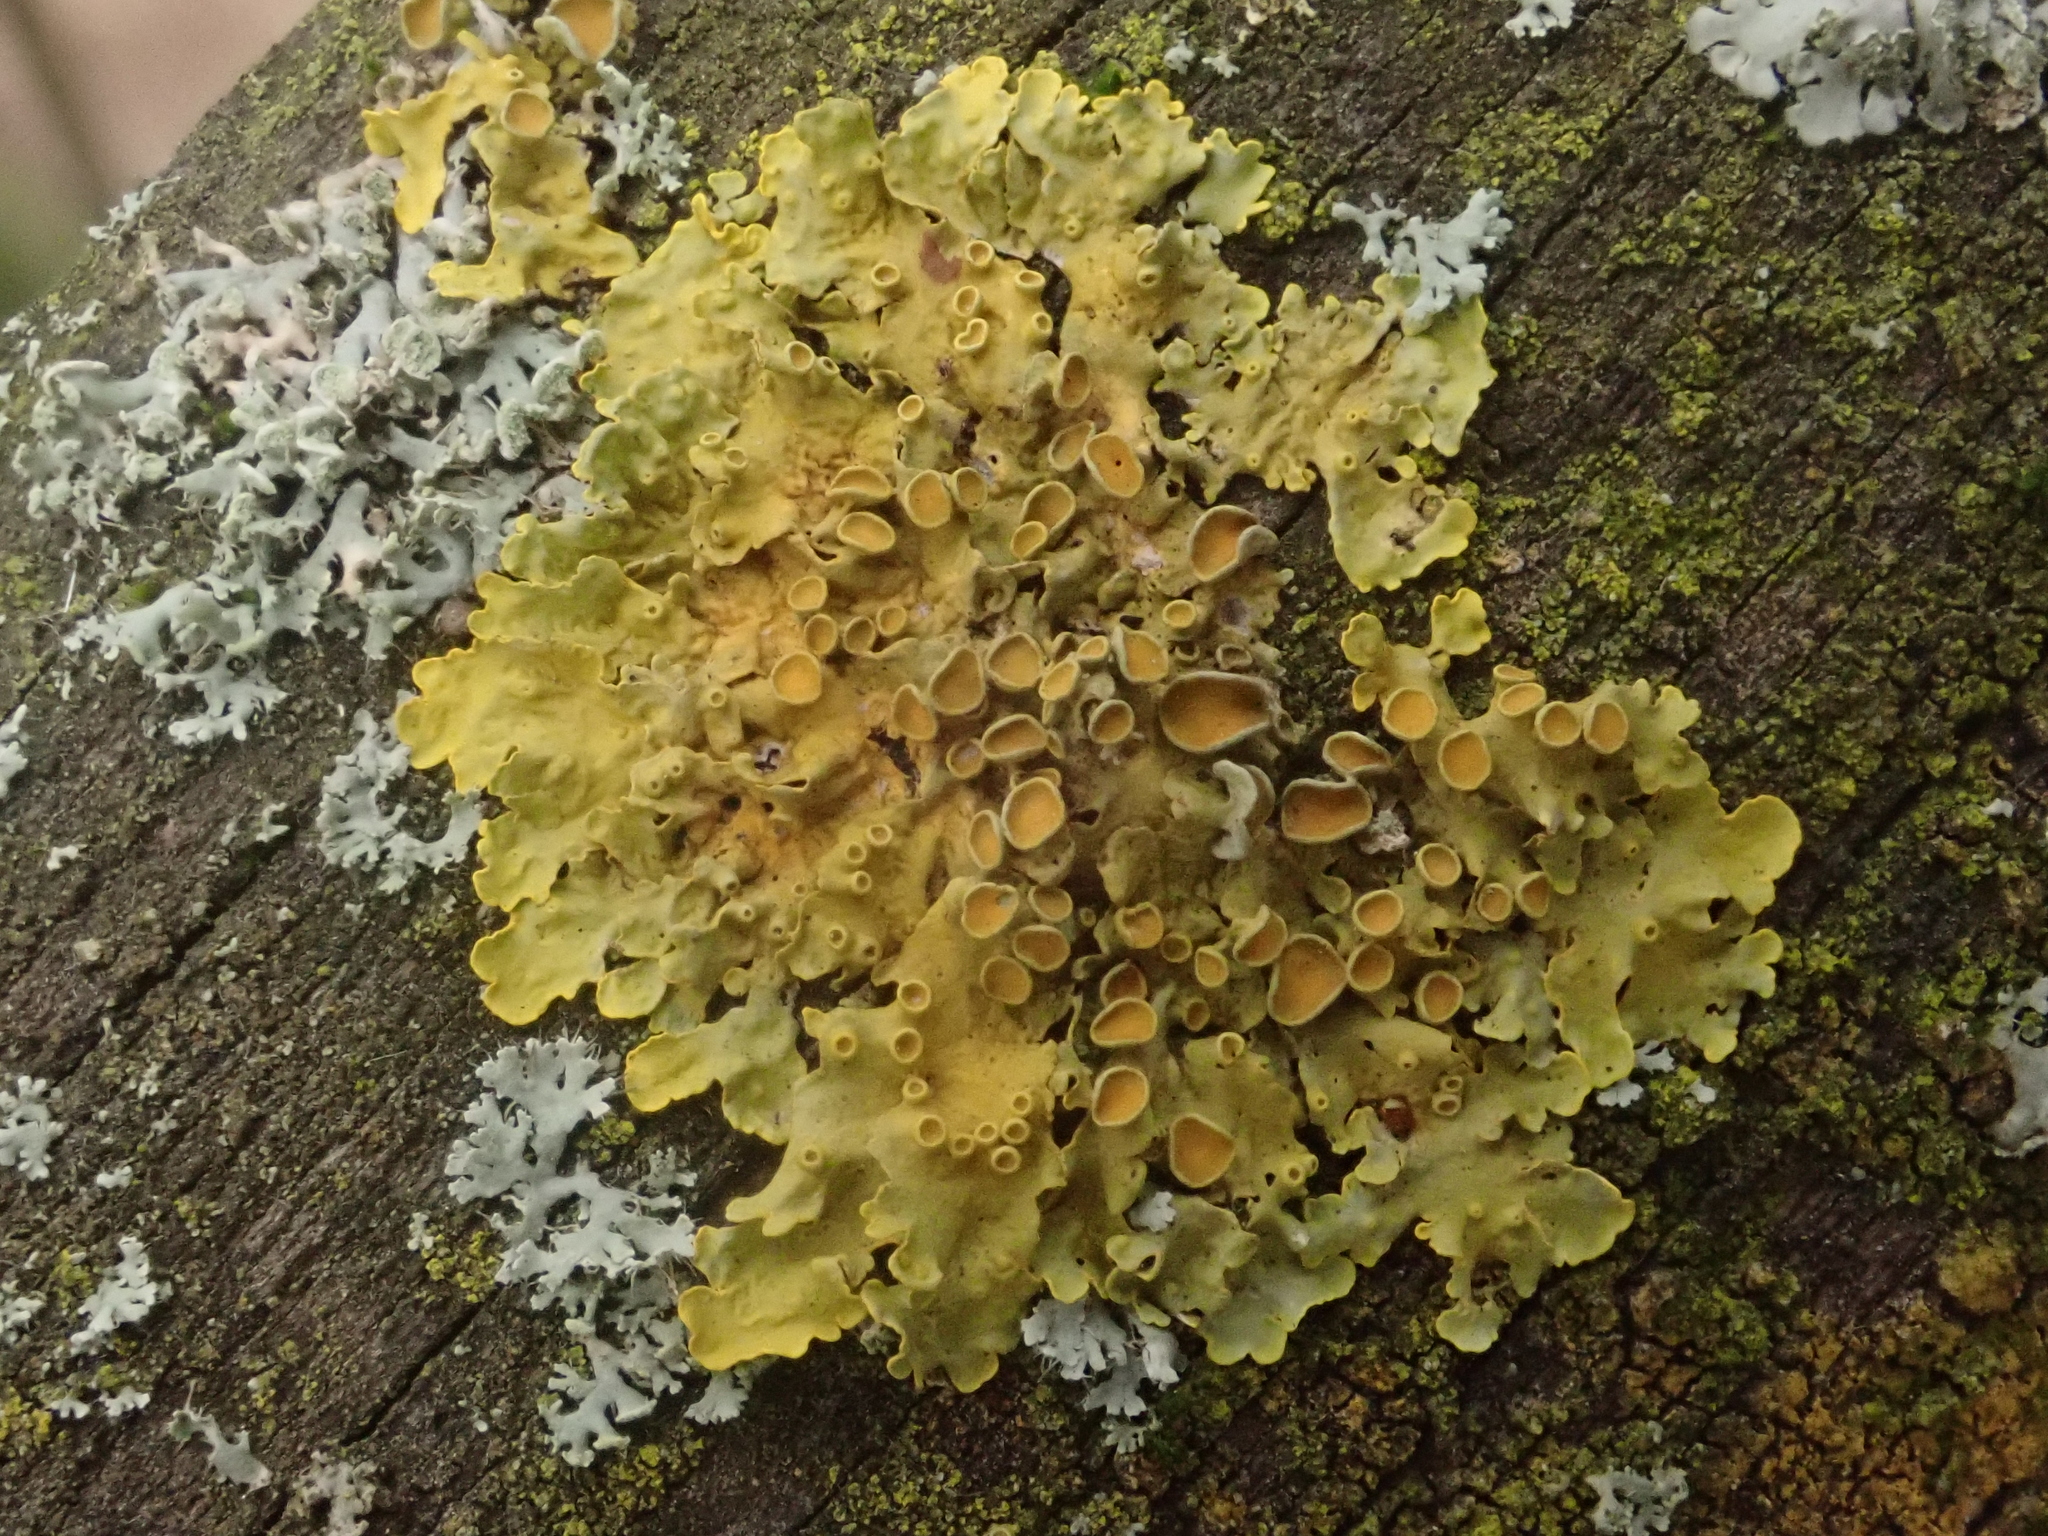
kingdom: Fungi
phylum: Ascomycota
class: Lecanoromycetes
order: Teloschistales
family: Teloschistaceae
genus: Xanthoria
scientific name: Xanthoria parietina
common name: Common orange lichen
